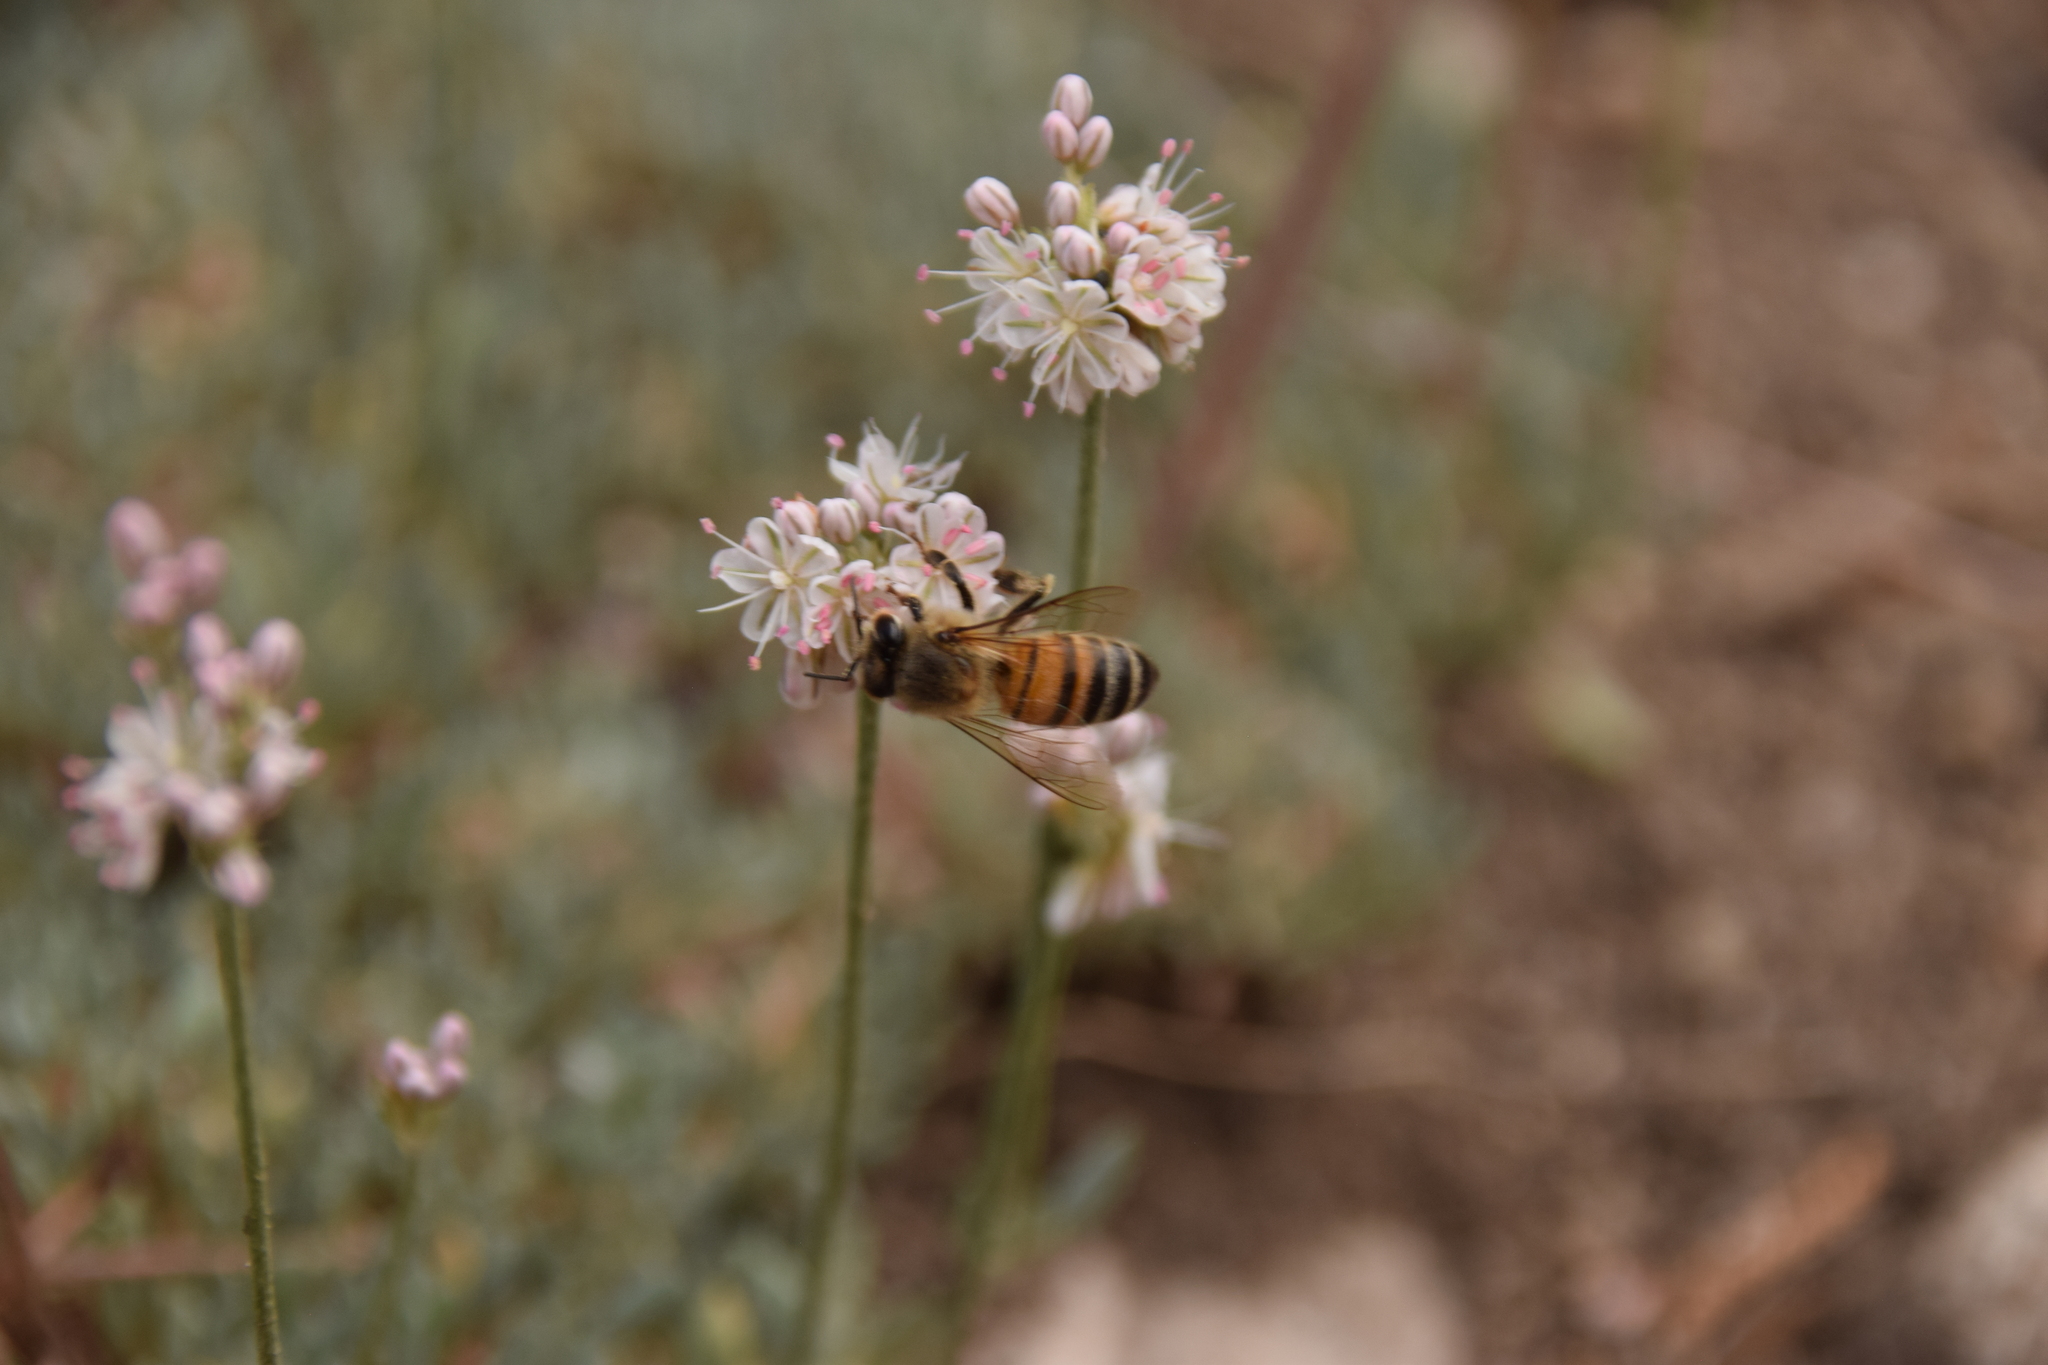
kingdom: Animalia
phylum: Arthropoda
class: Insecta
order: Hymenoptera
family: Apidae
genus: Apis
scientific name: Apis mellifera
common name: Honey bee
